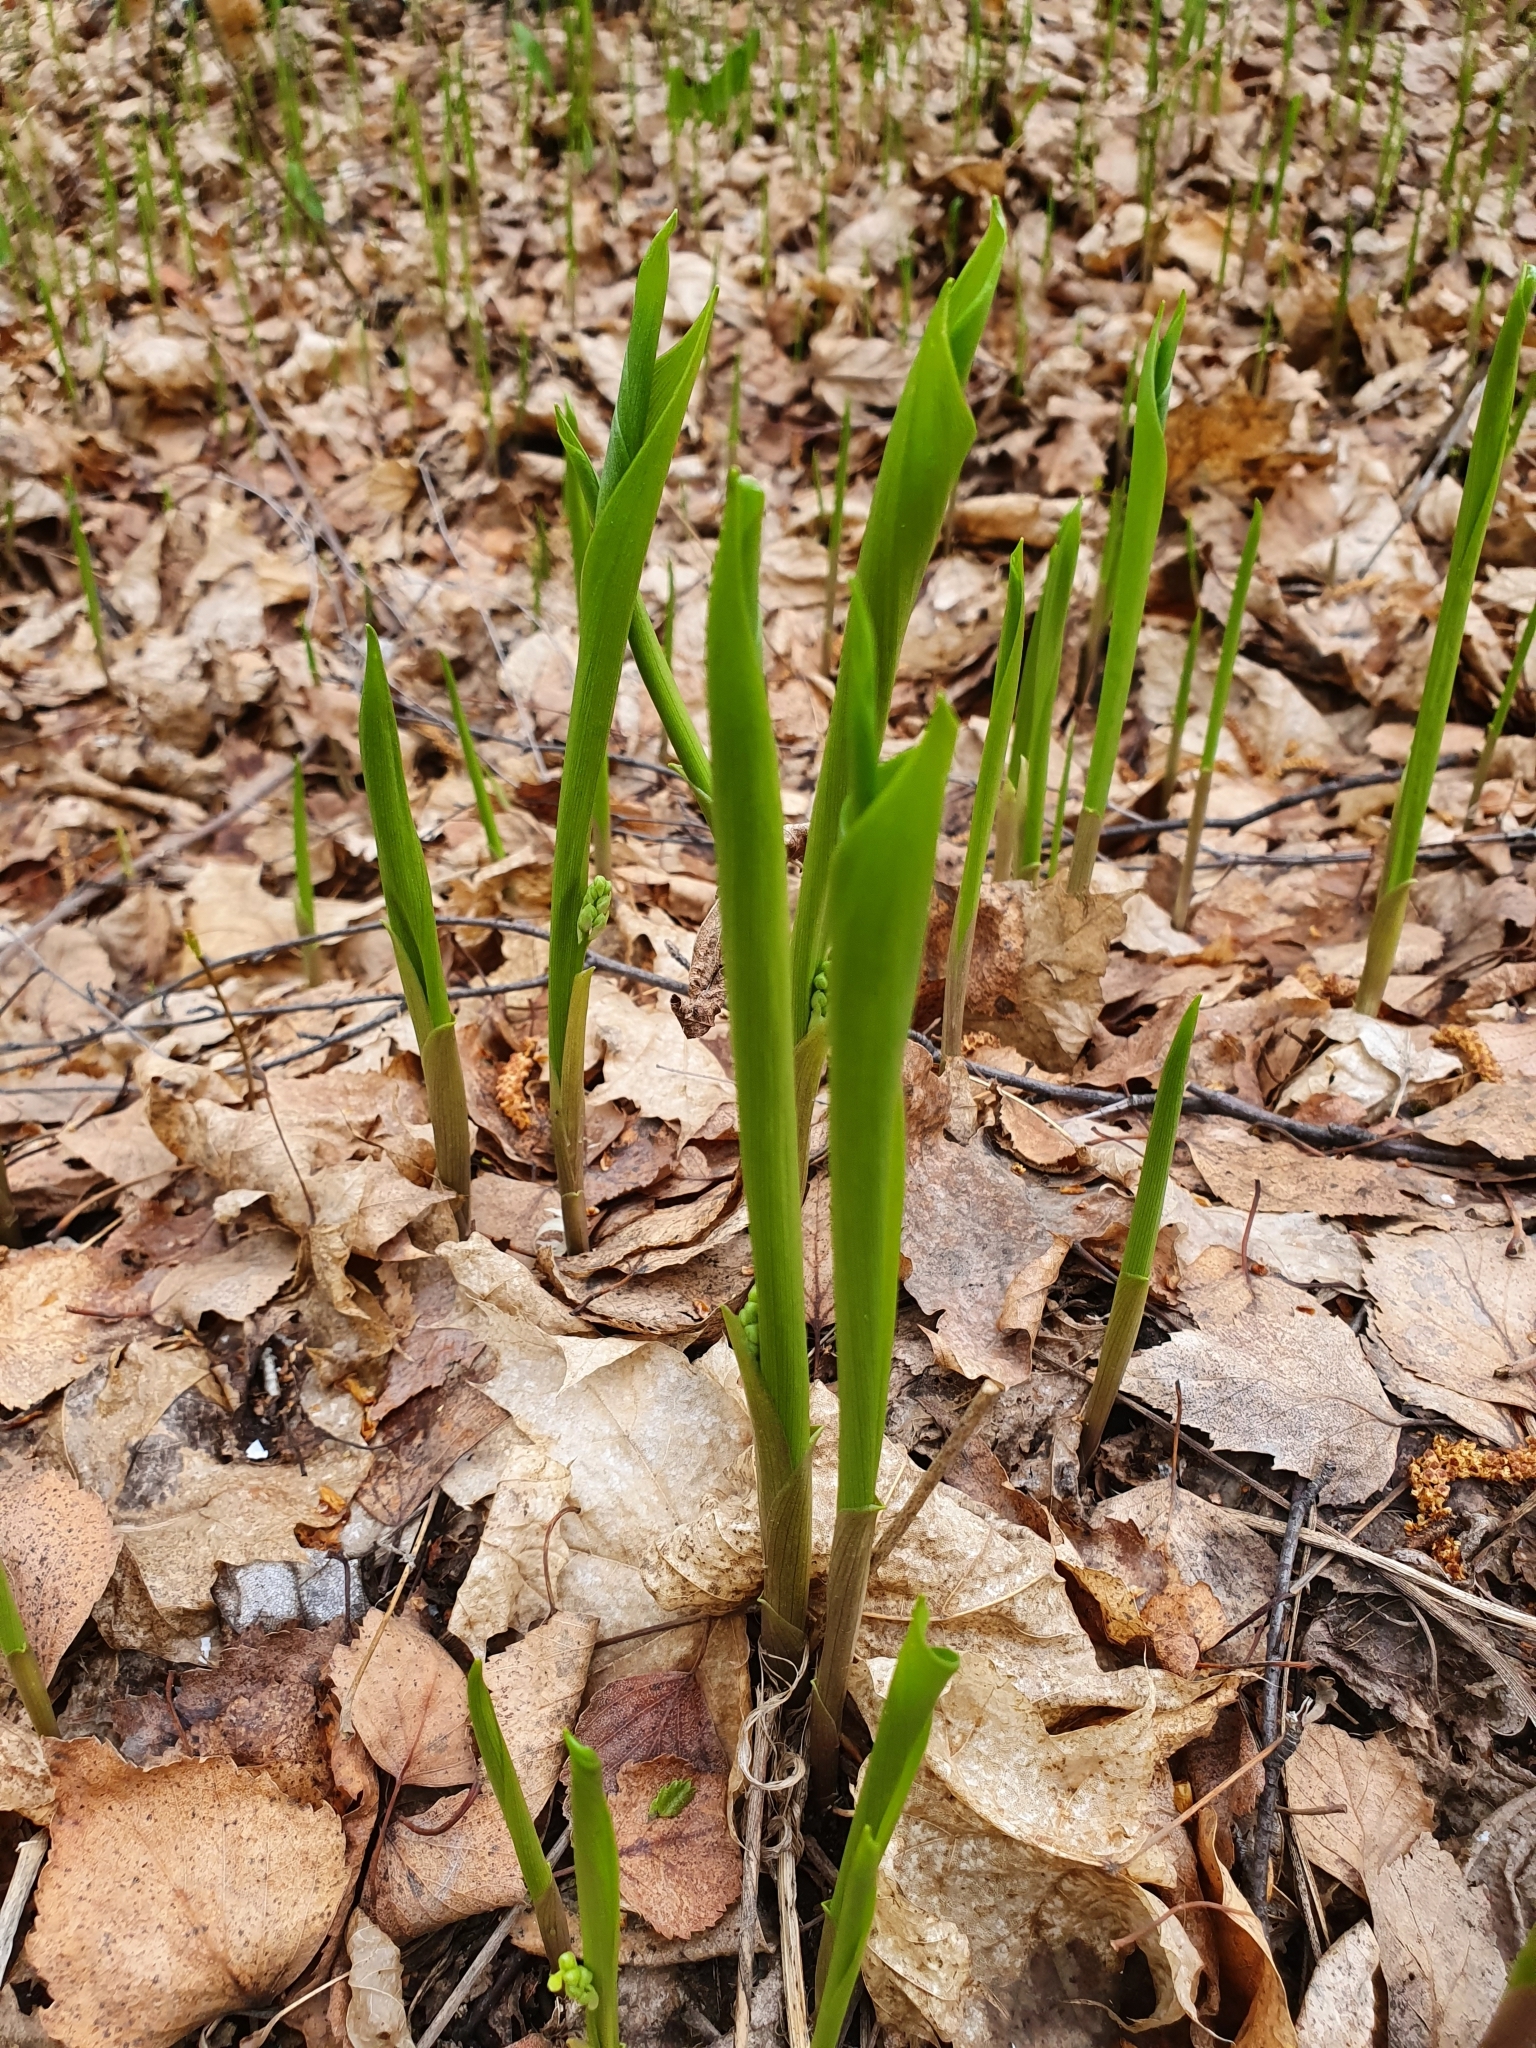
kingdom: Plantae
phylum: Tracheophyta
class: Liliopsida
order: Asparagales
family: Asparagaceae
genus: Convallaria
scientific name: Convallaria majalis
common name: Lily-of-the-valley
